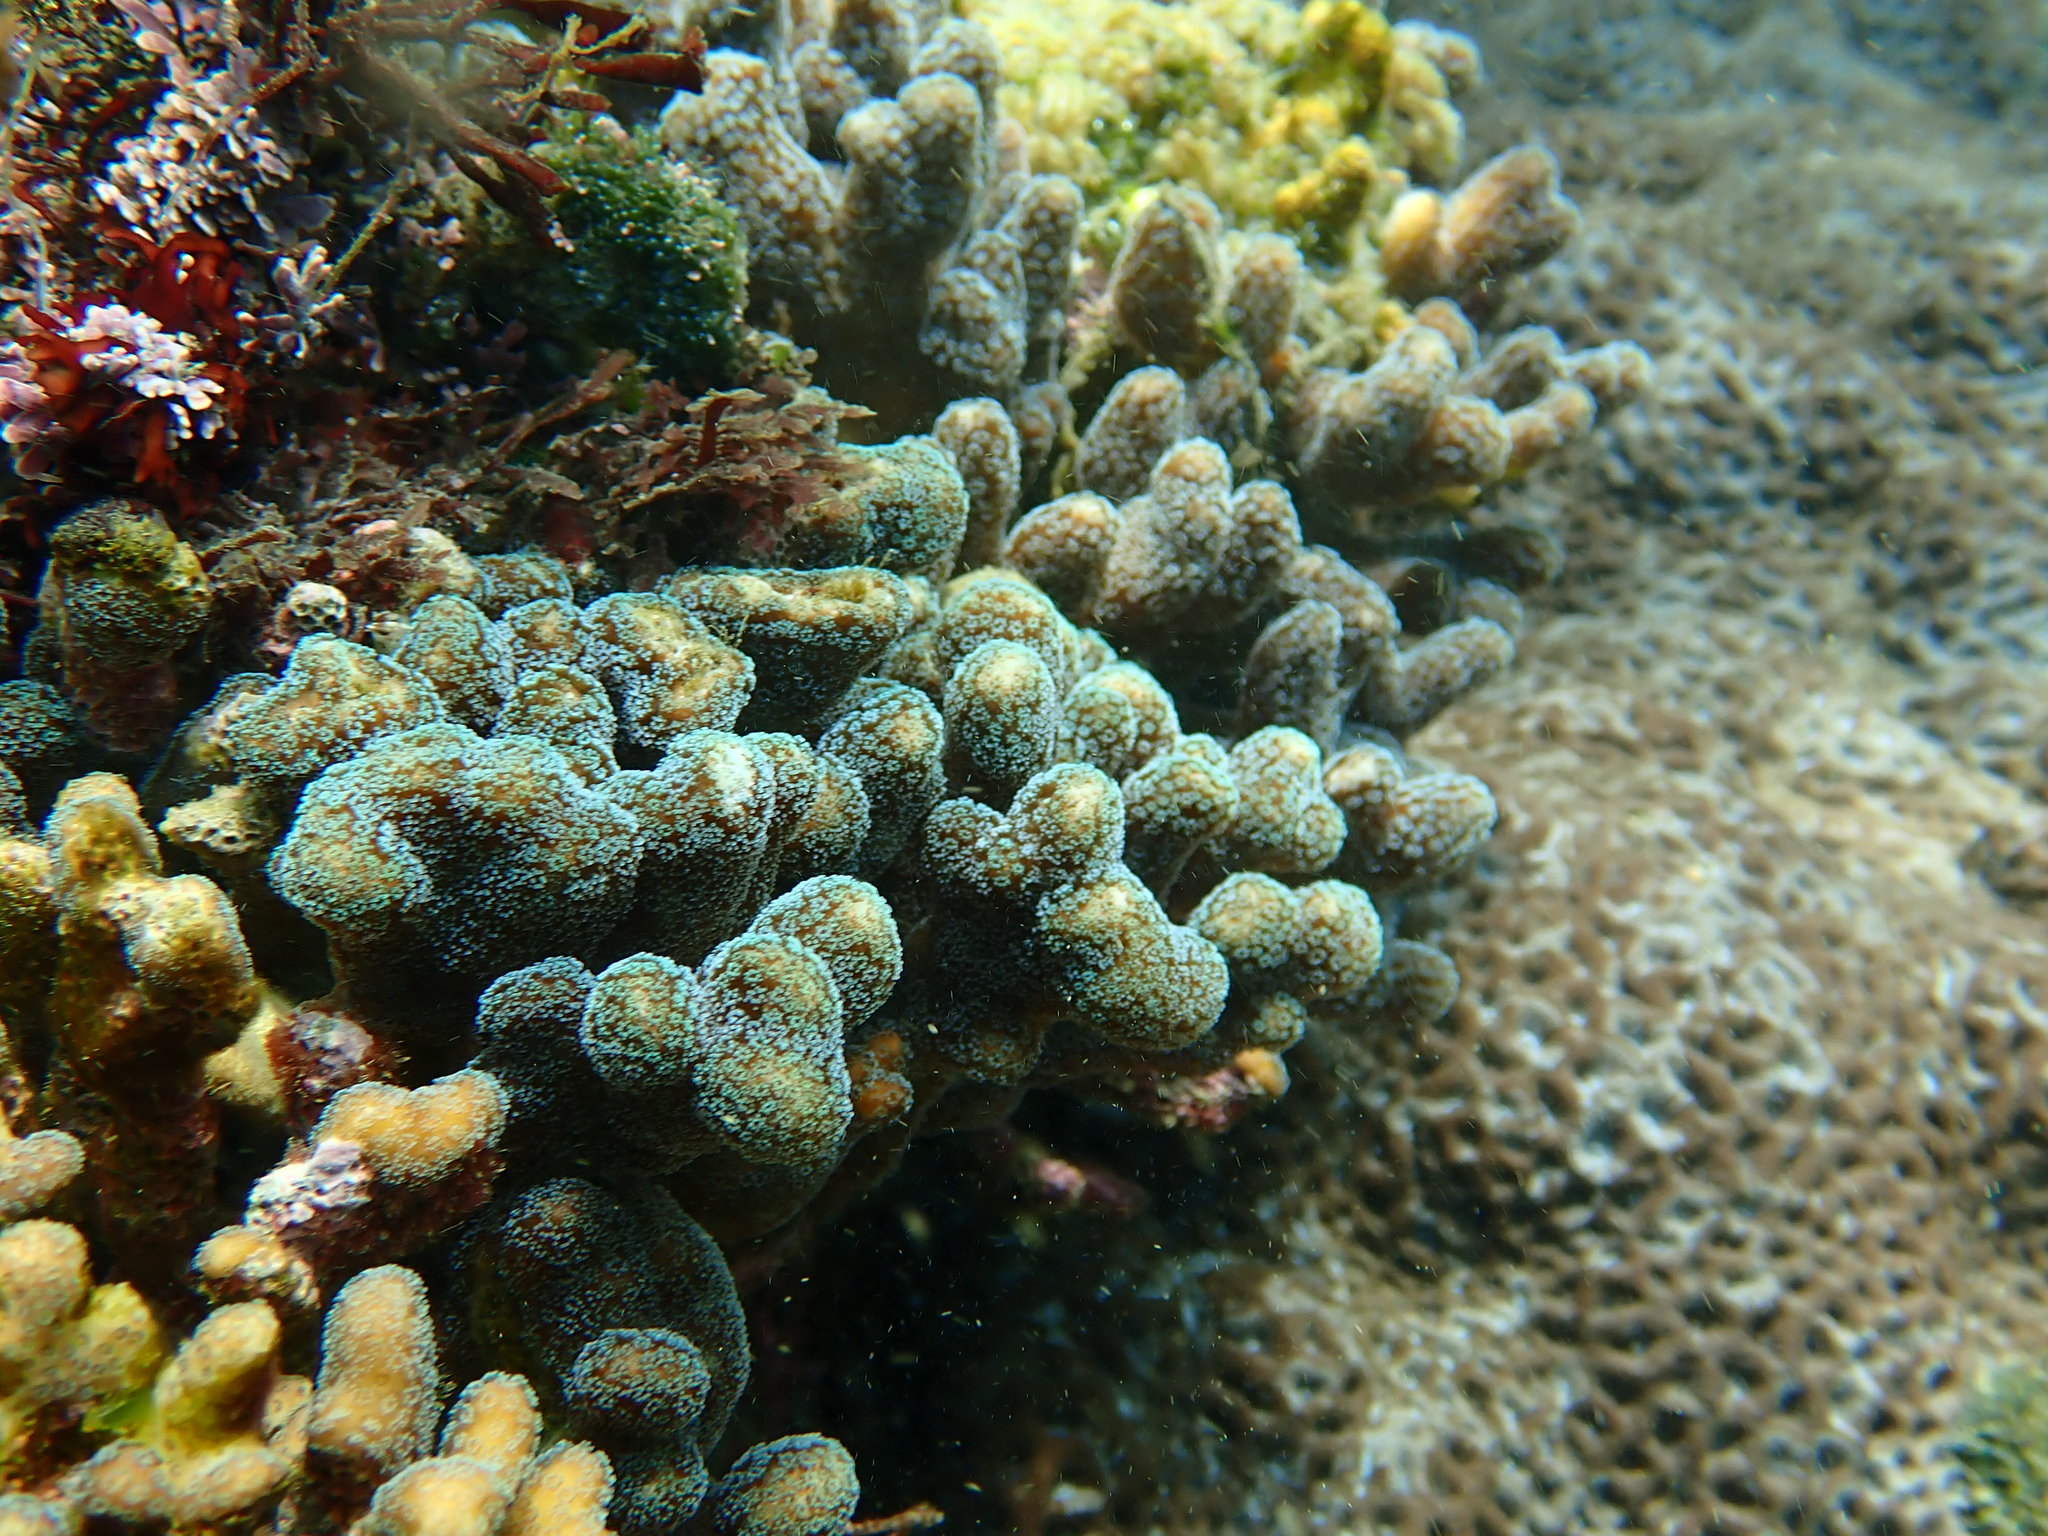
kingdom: Animalia
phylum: Cnidaria
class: Anthozoa
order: Scleractinia
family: Pocilloporidae
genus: Stylophora
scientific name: Stylophora pistillata
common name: Hood coral
